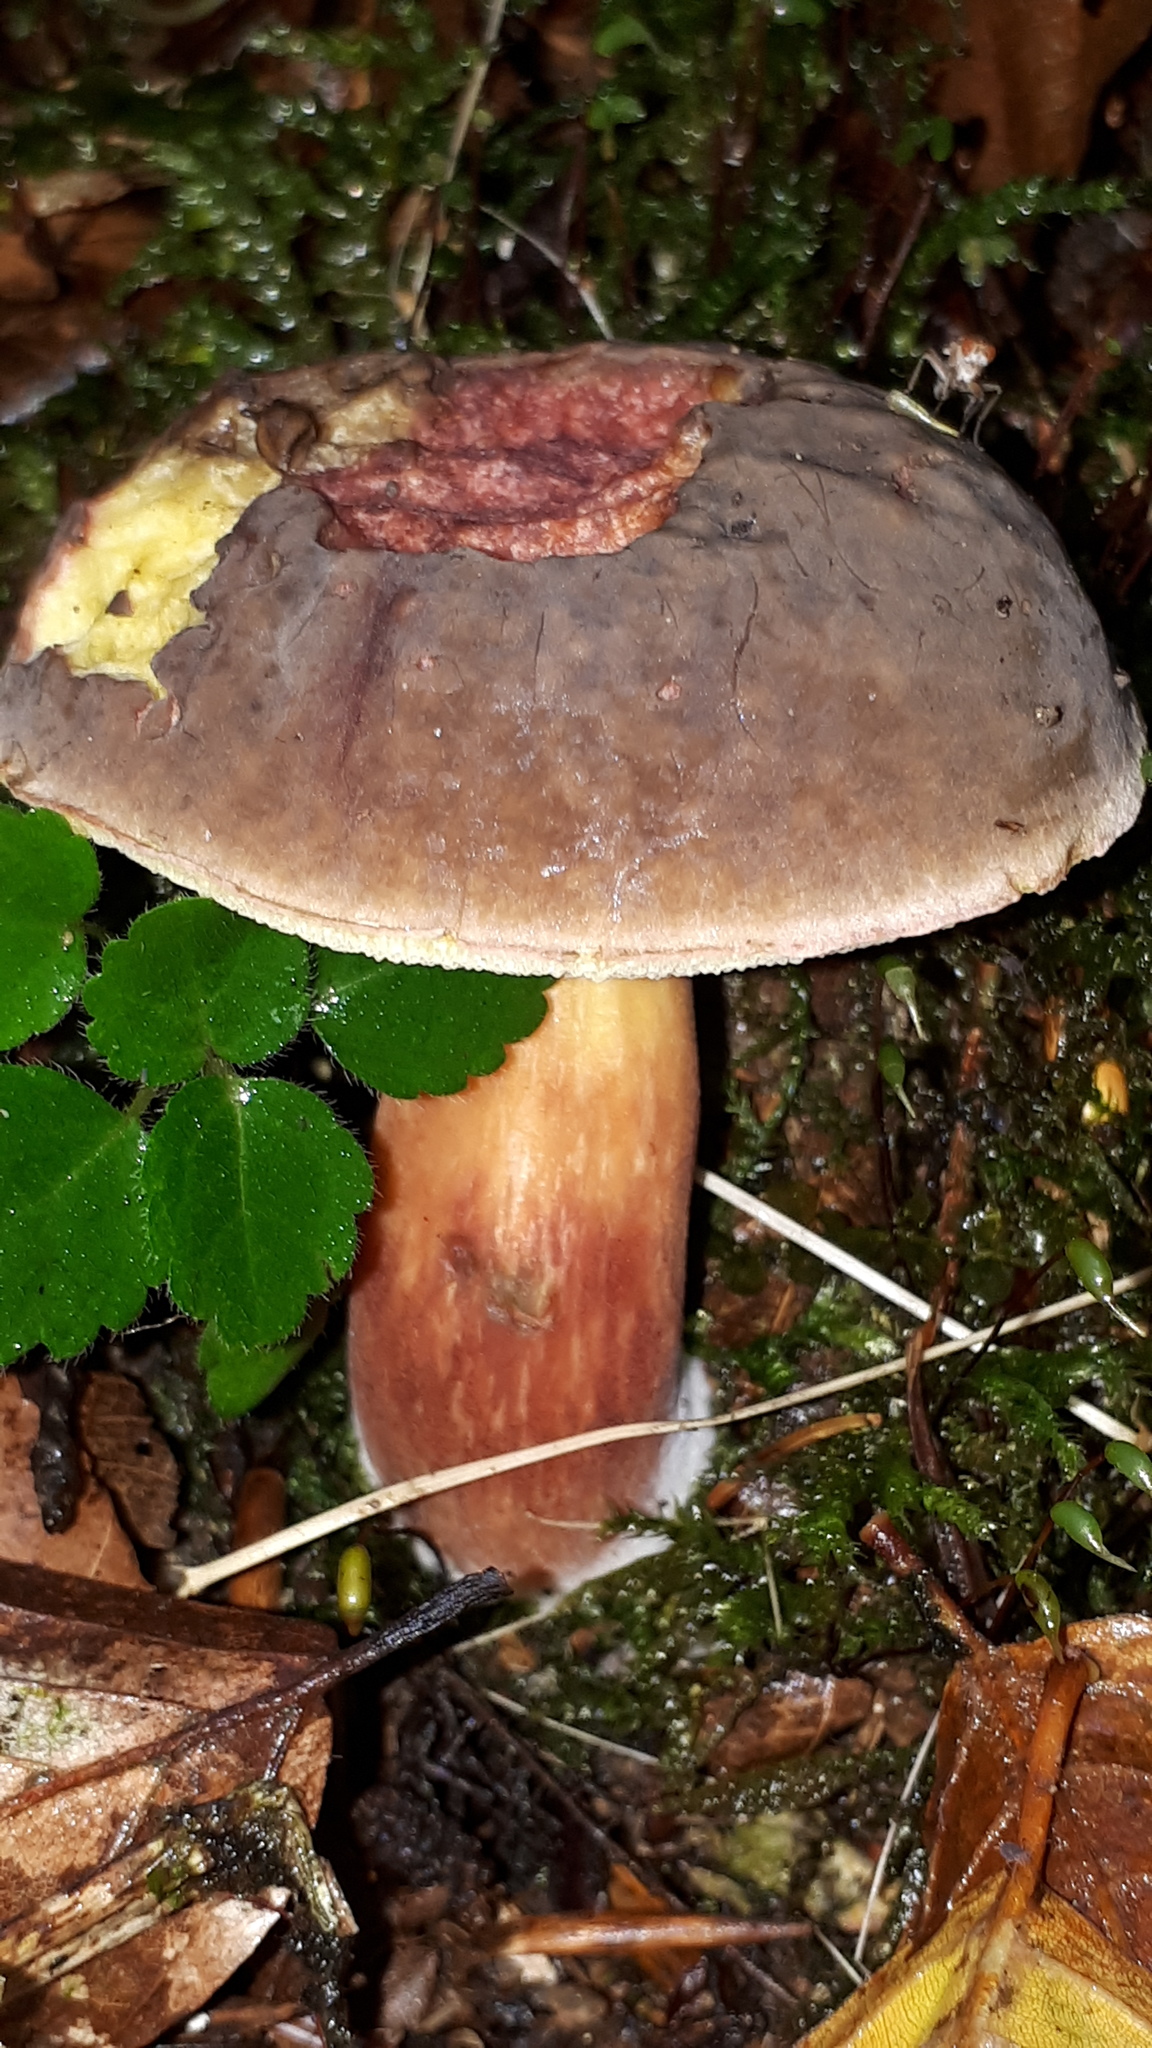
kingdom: Fungi
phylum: Basidiomycota
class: Agaricomycetes
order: Boletales
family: Boletaceae
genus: Xerocomellus
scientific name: Xerocomellus chrysenteron
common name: Red-cracking bolete
